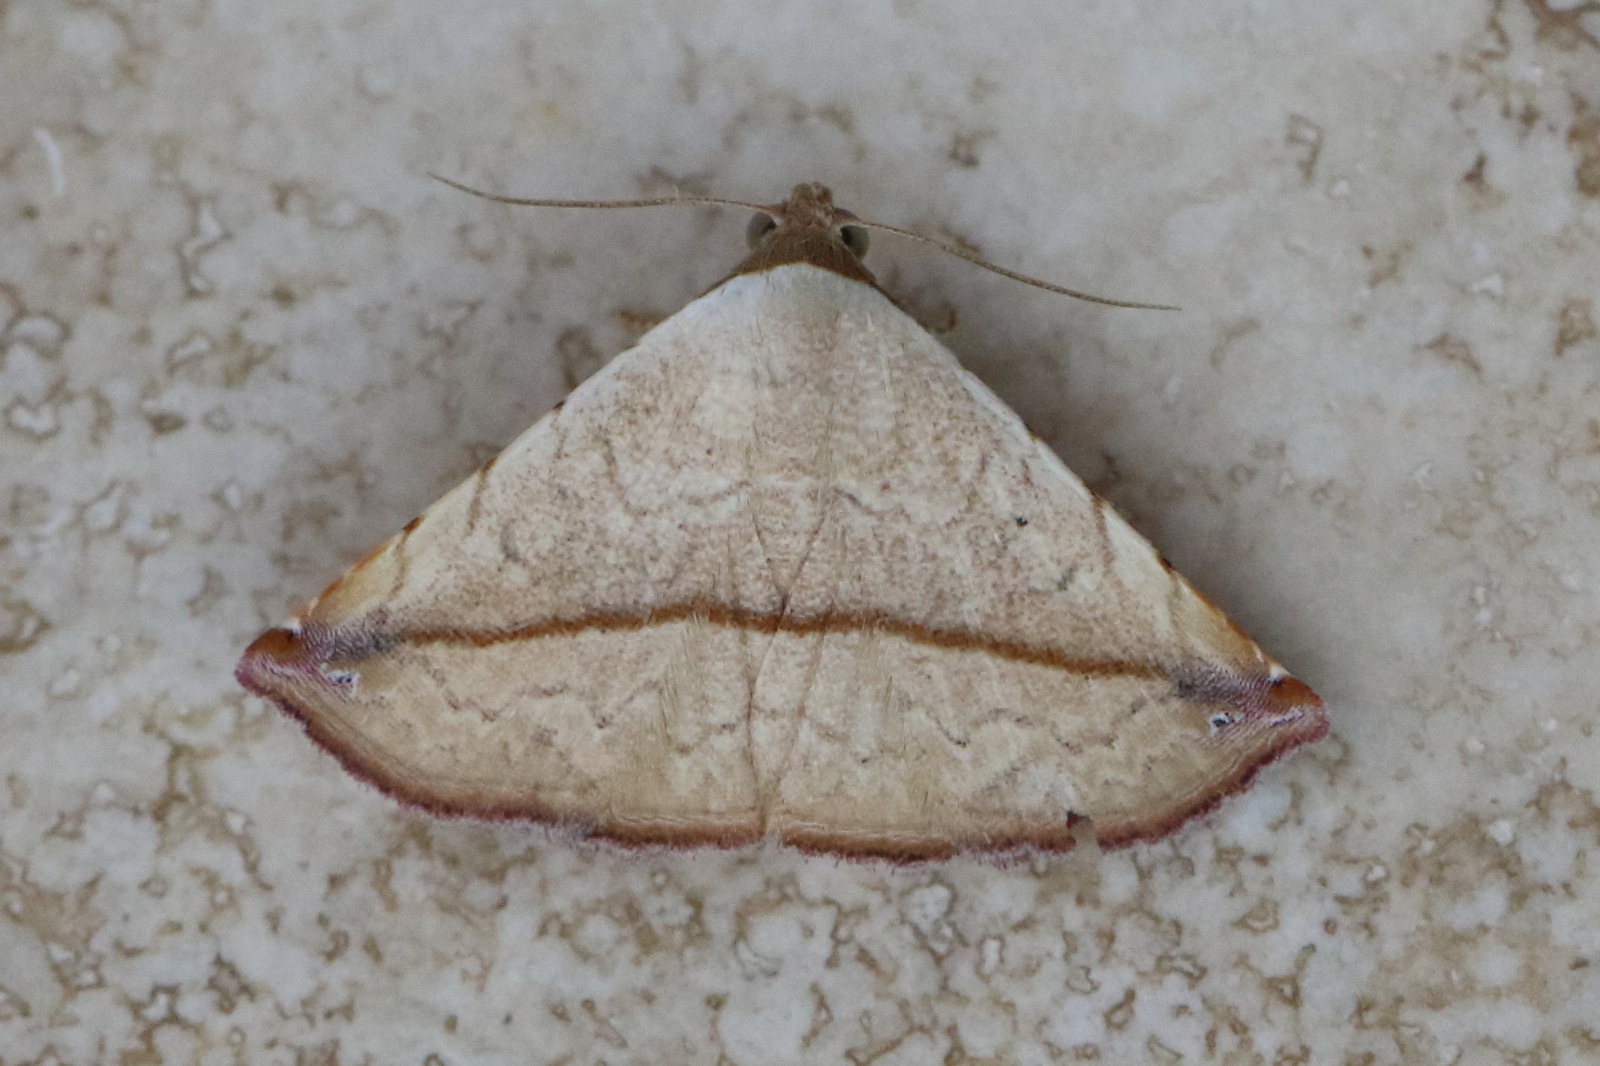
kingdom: Animalia
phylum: Arthropoda
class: Insecta
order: Lepidoptera
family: Noctuidae
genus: Eublemma
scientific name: Eublemma perversicolor
